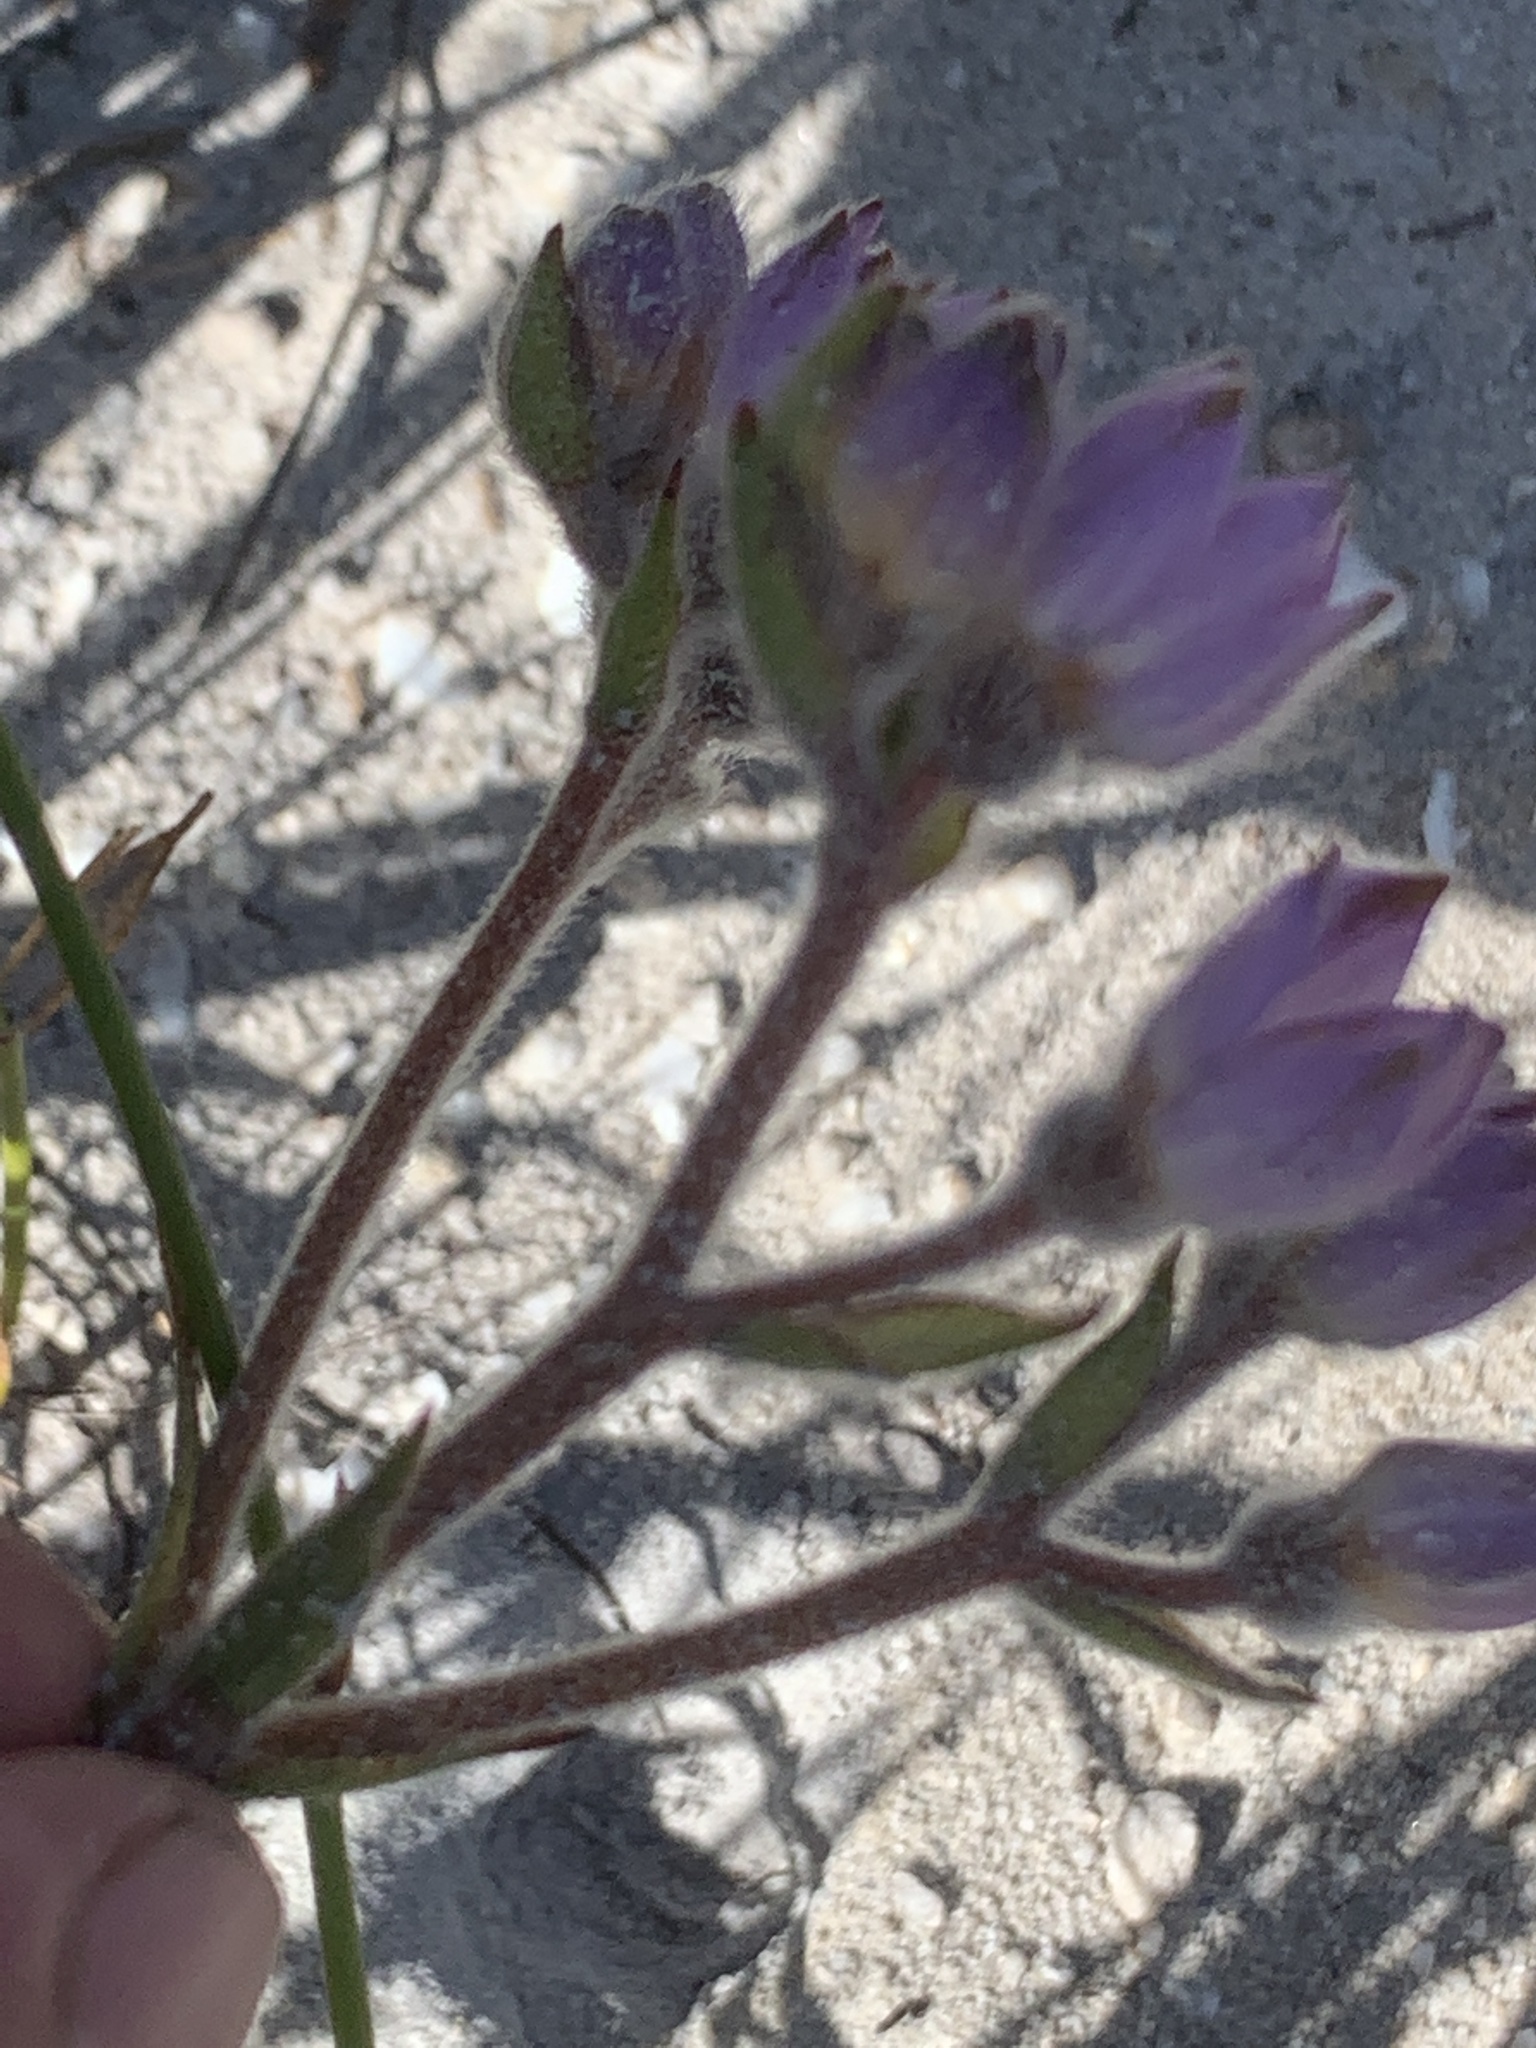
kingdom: Plantae
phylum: Tracheophyta
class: Liliopsida
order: Commelinales
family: Haemodoraceae
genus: Dilatris
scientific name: Dilatris pillansii
